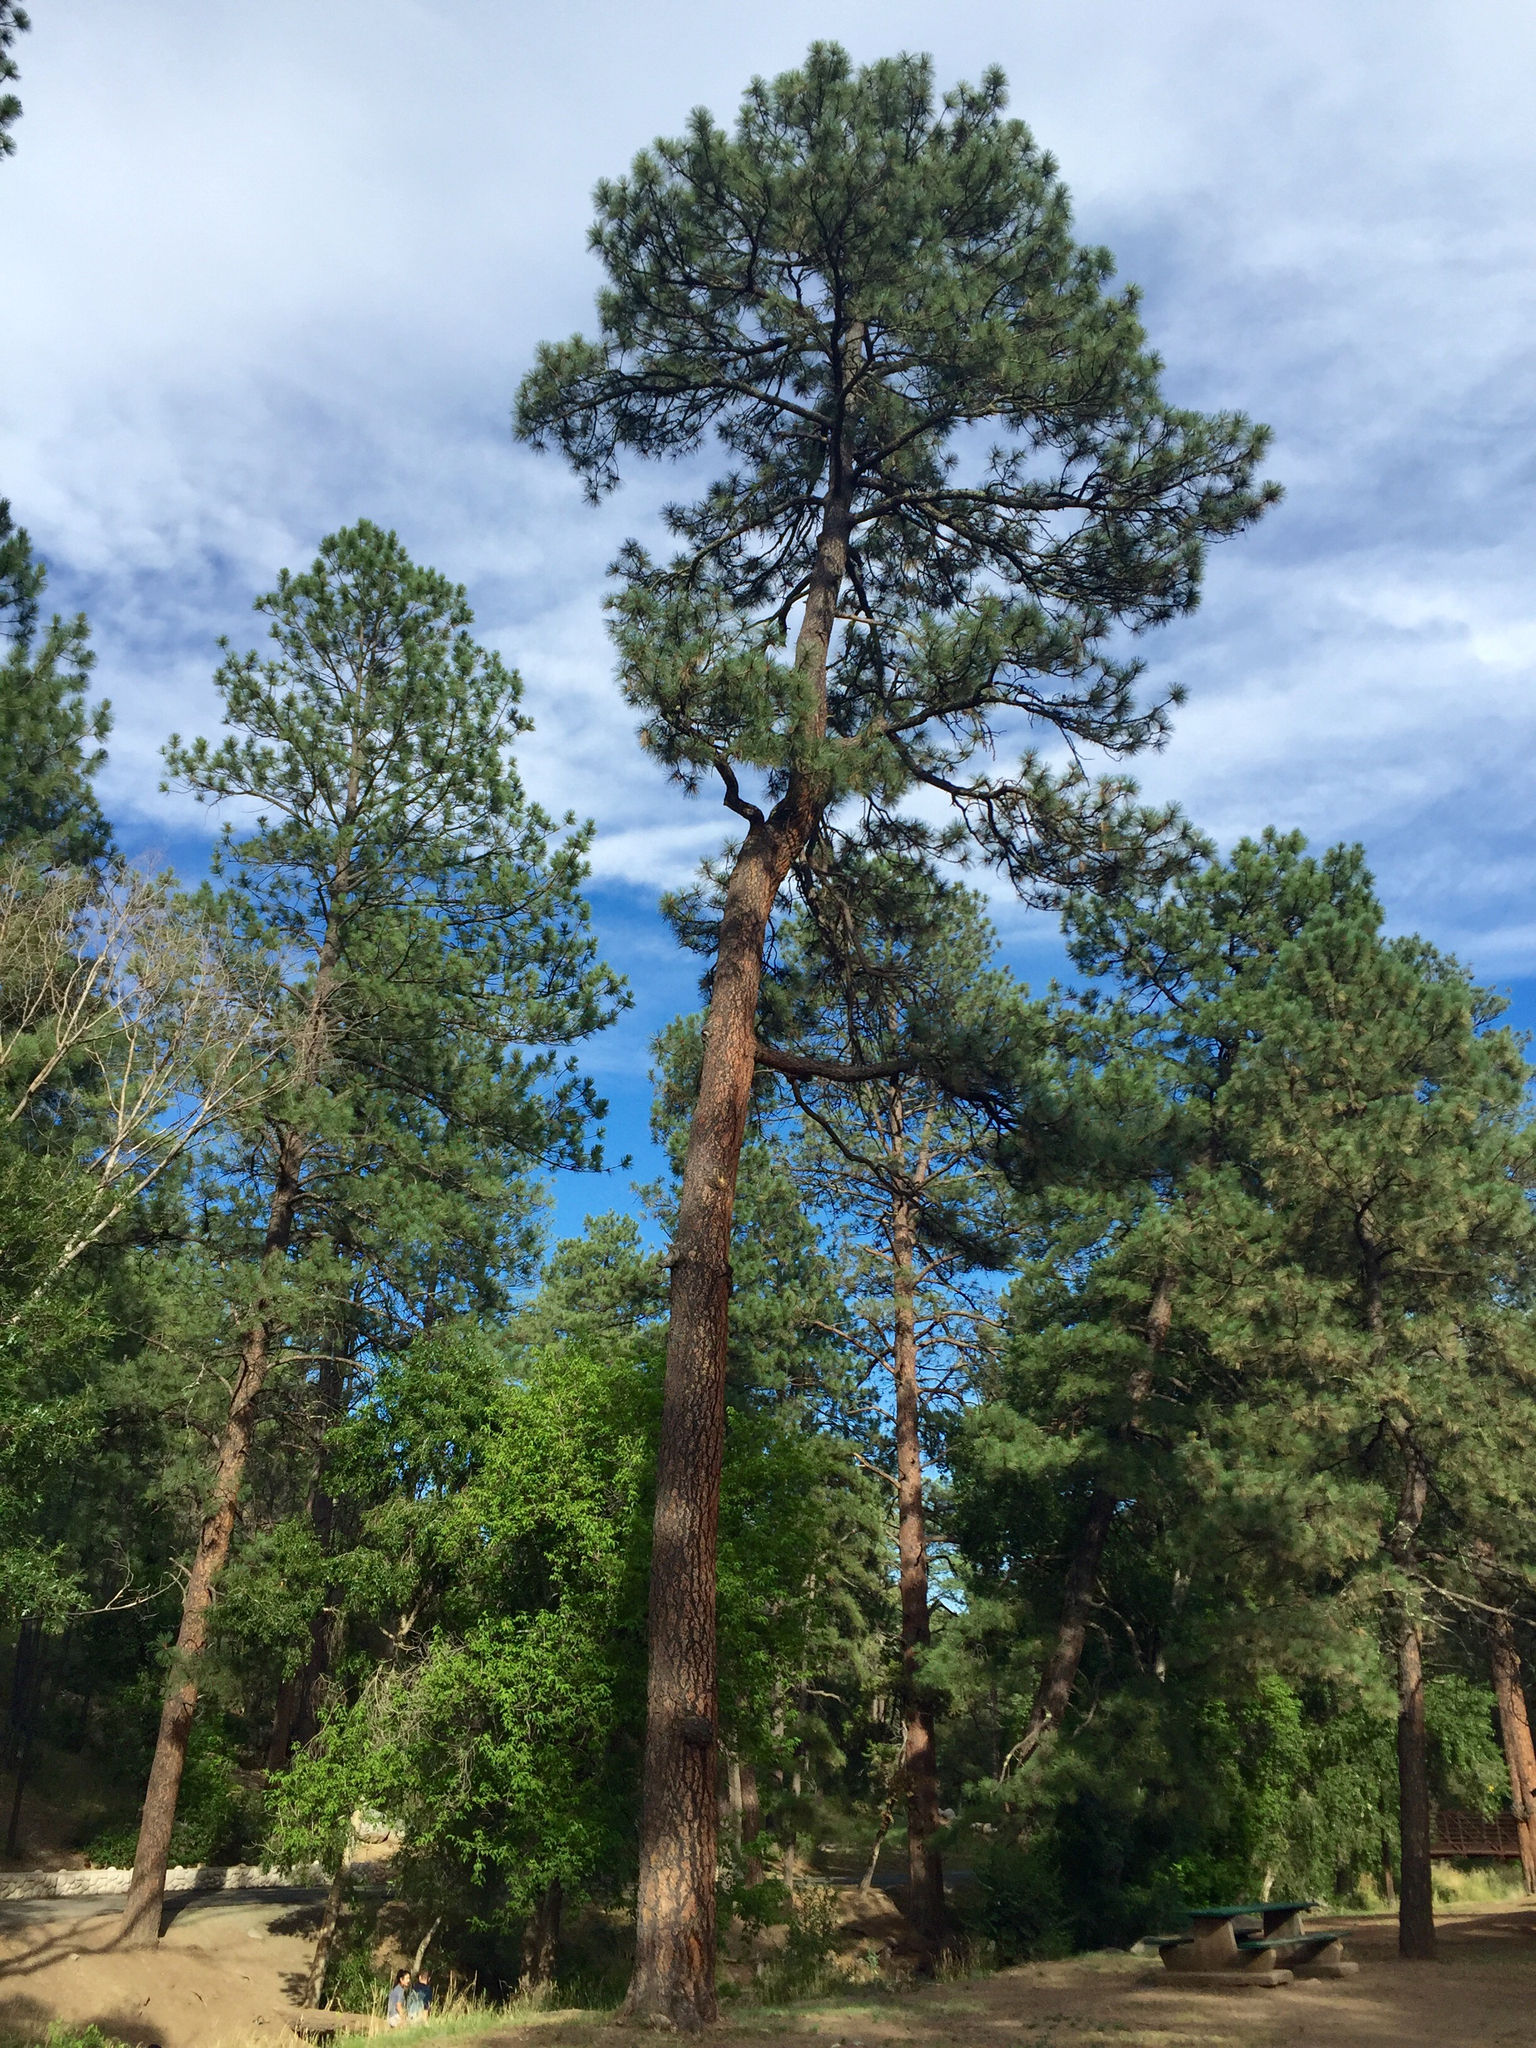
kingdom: Plantae
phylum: Tracheophyta
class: Pinopsida
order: Pinales
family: Pinaceae
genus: Pinus
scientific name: Pinus ponderosa
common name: Western yellow-pine
